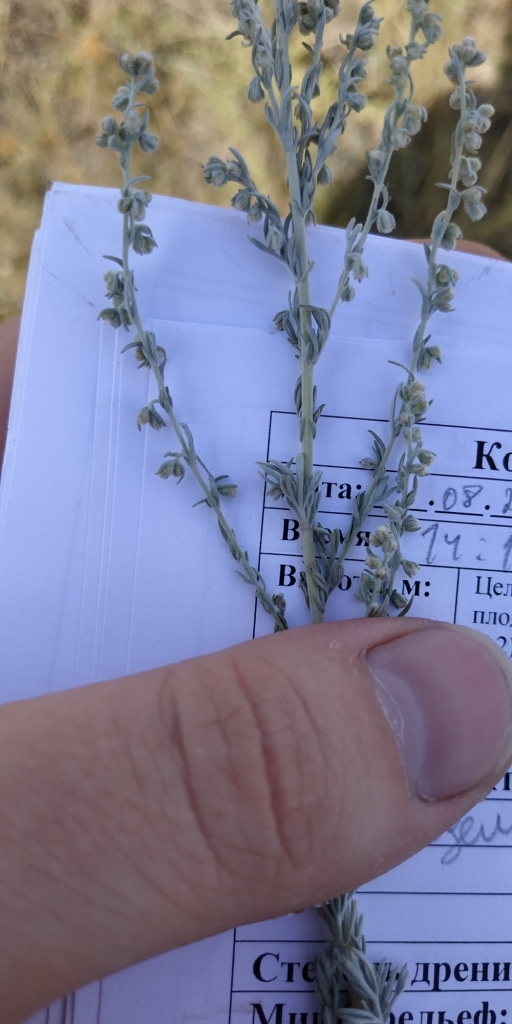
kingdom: Plantae
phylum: Tracheophyta
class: Magnoliopsida
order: Asterales
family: Asteraceae
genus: Artemisia
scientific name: Artemisia nitrosa
